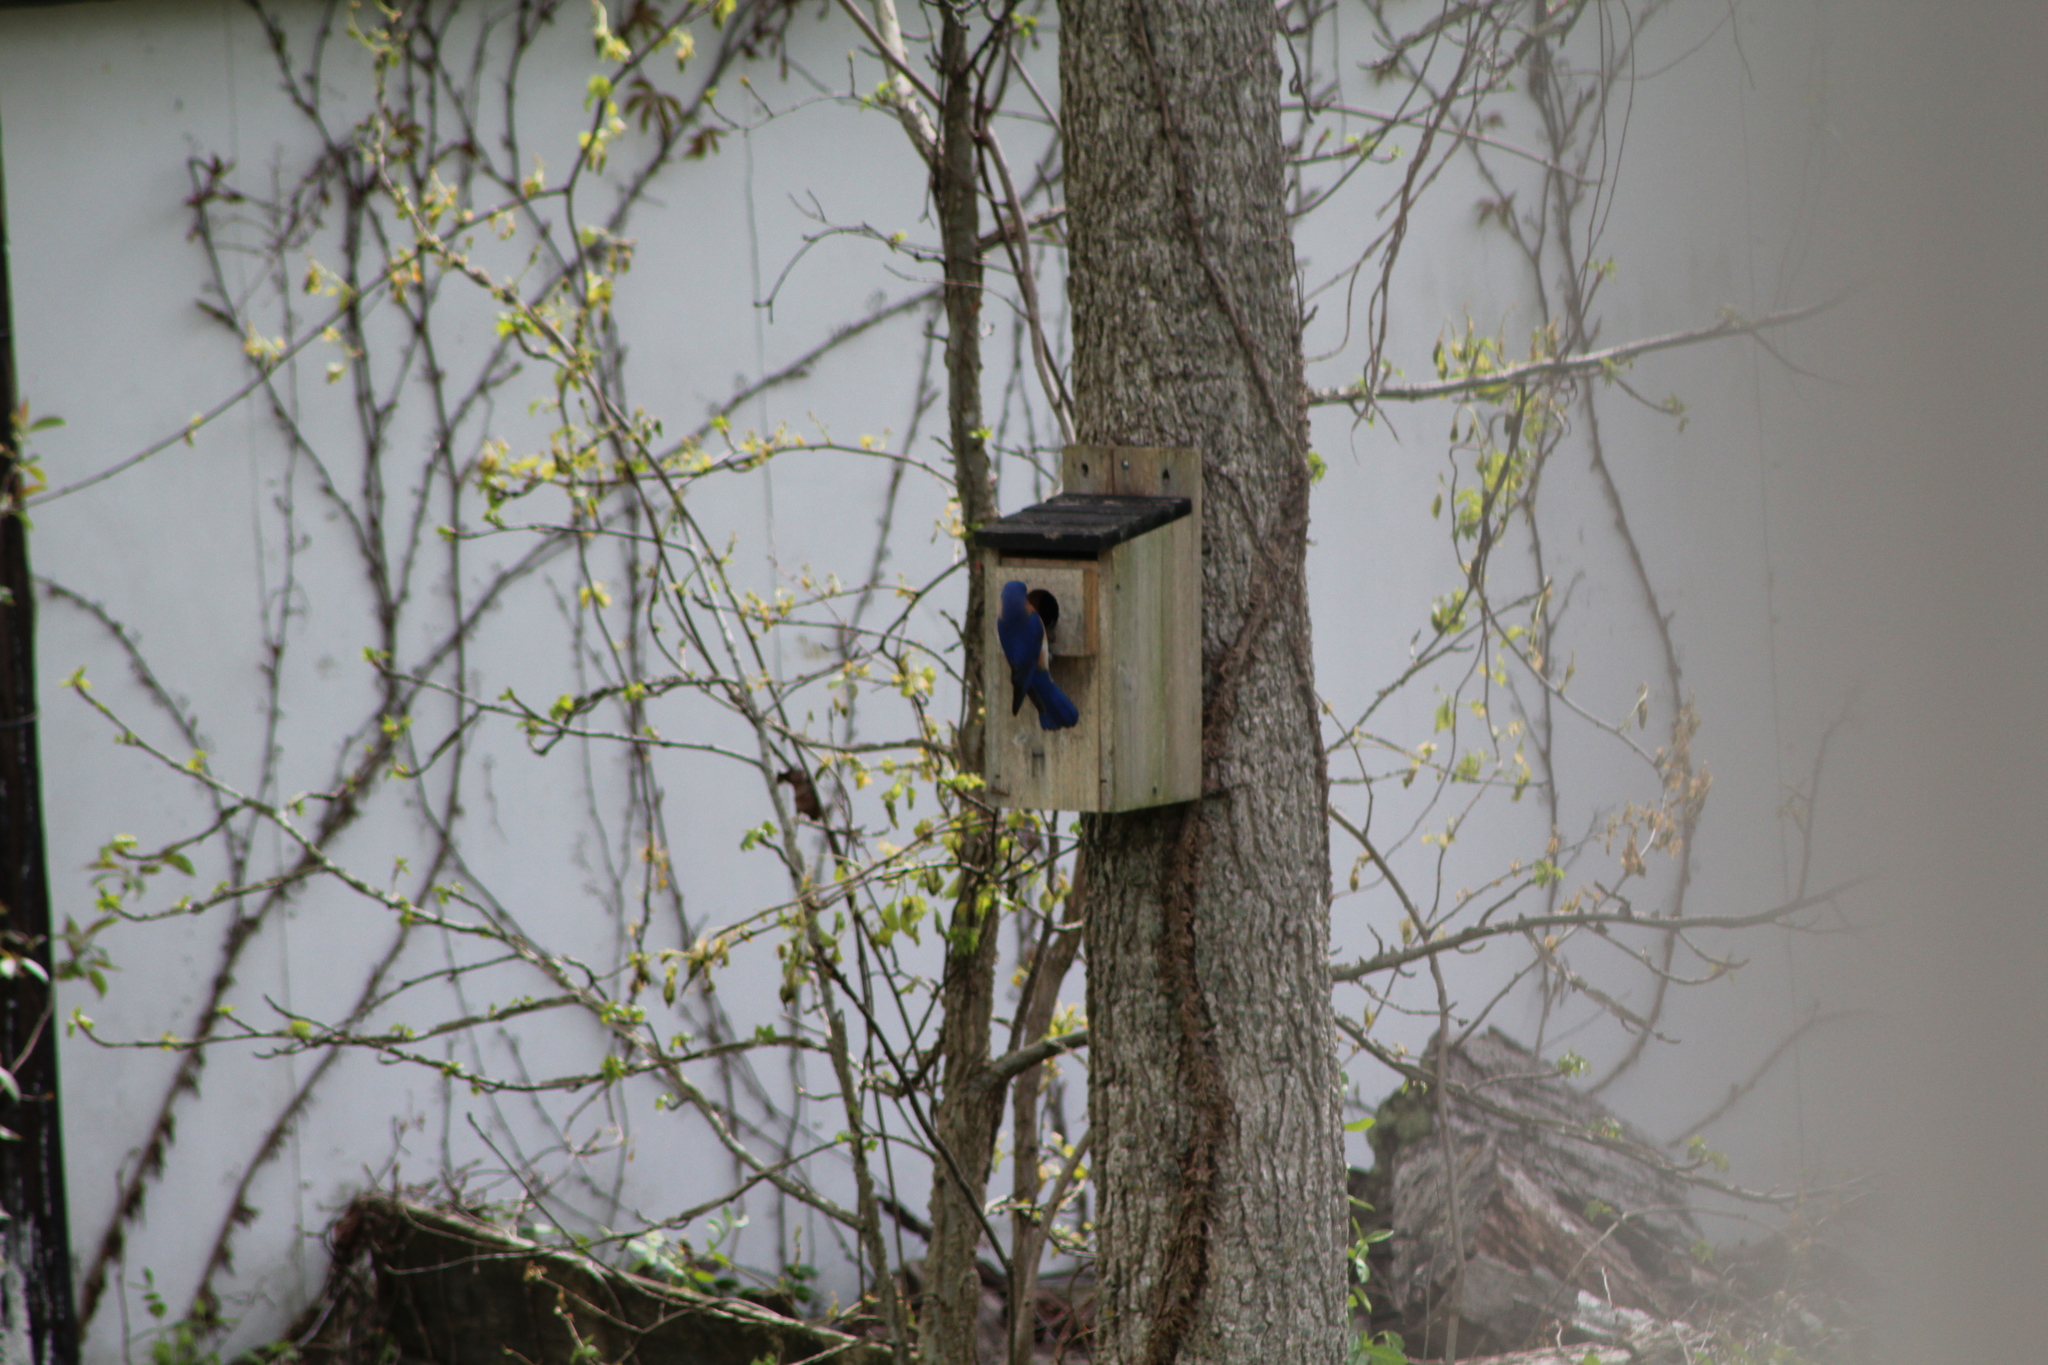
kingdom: Animalia
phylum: Chordata
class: Aves
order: Passeriformes
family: Turdidae
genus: Sialia
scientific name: Sialia sialis
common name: Eastern bluebird
